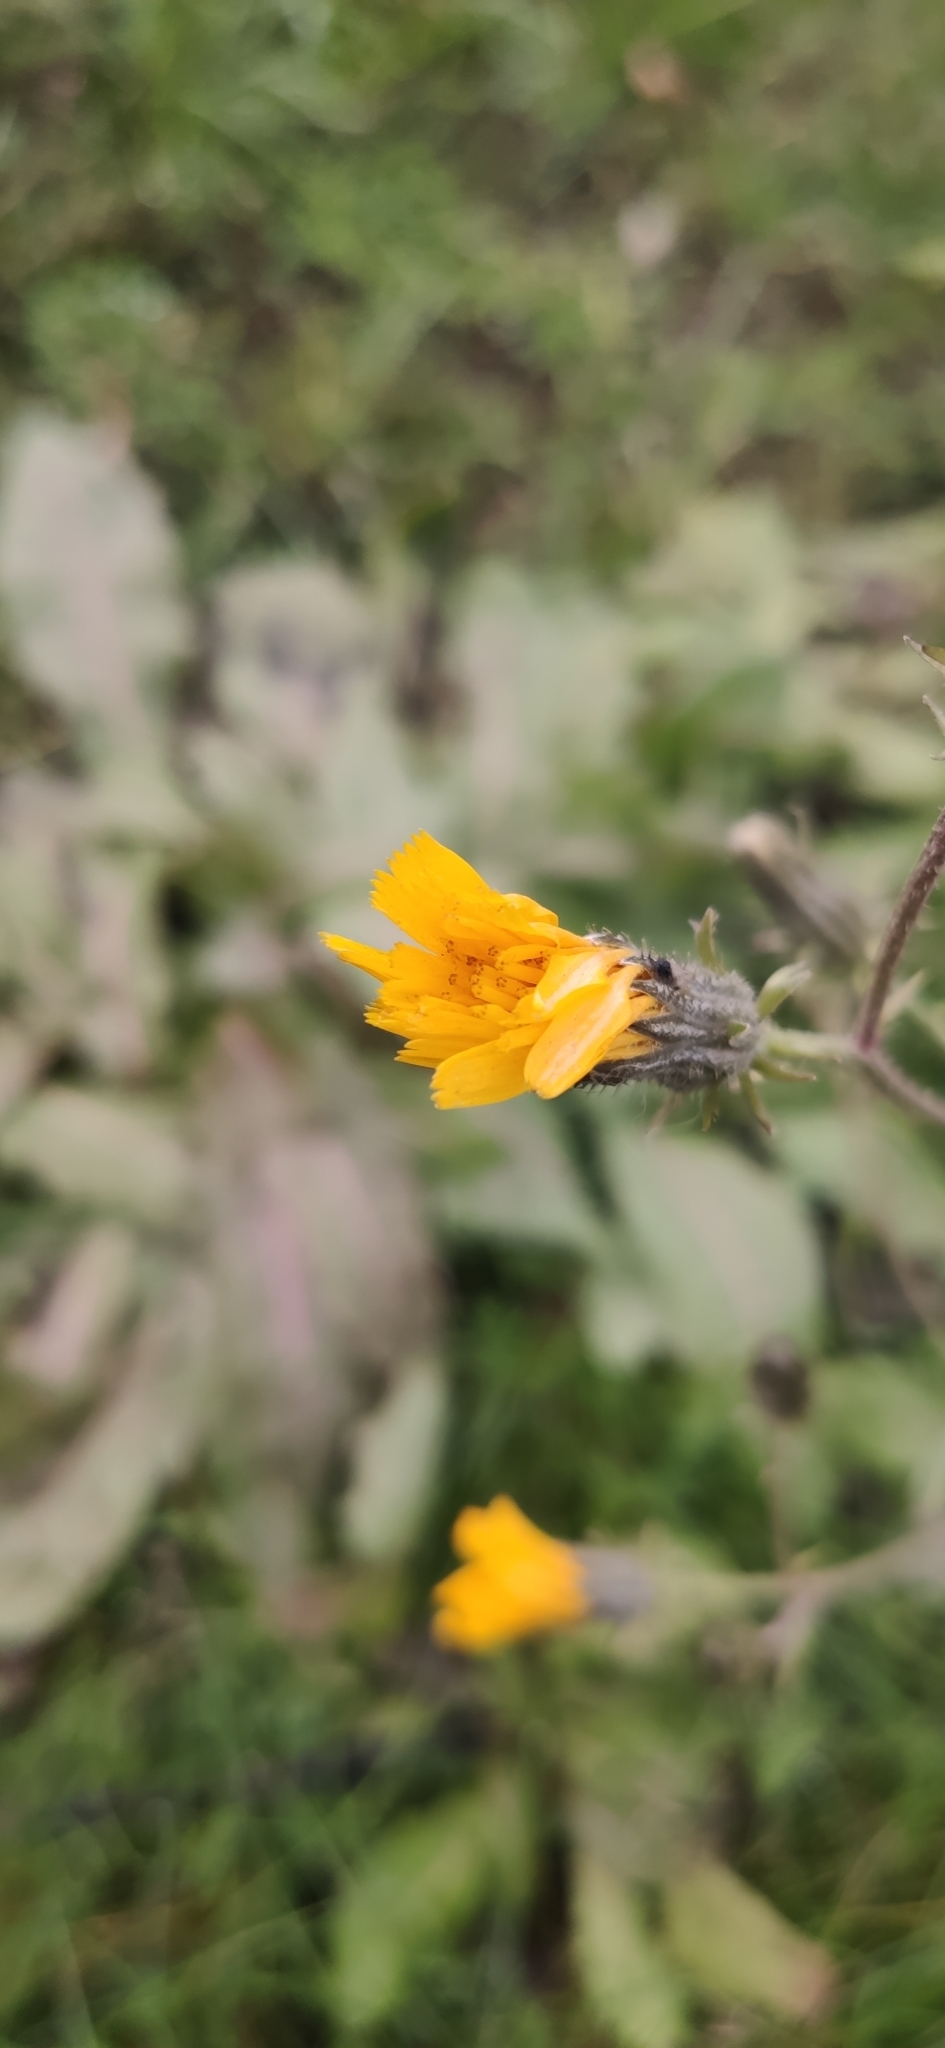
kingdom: Plantae
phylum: Tracheophyta
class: Magnoliopsida
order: Asterales
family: Asteraceae
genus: Picris
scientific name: Picris hieracioides
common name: Hawkweed oxtongue
